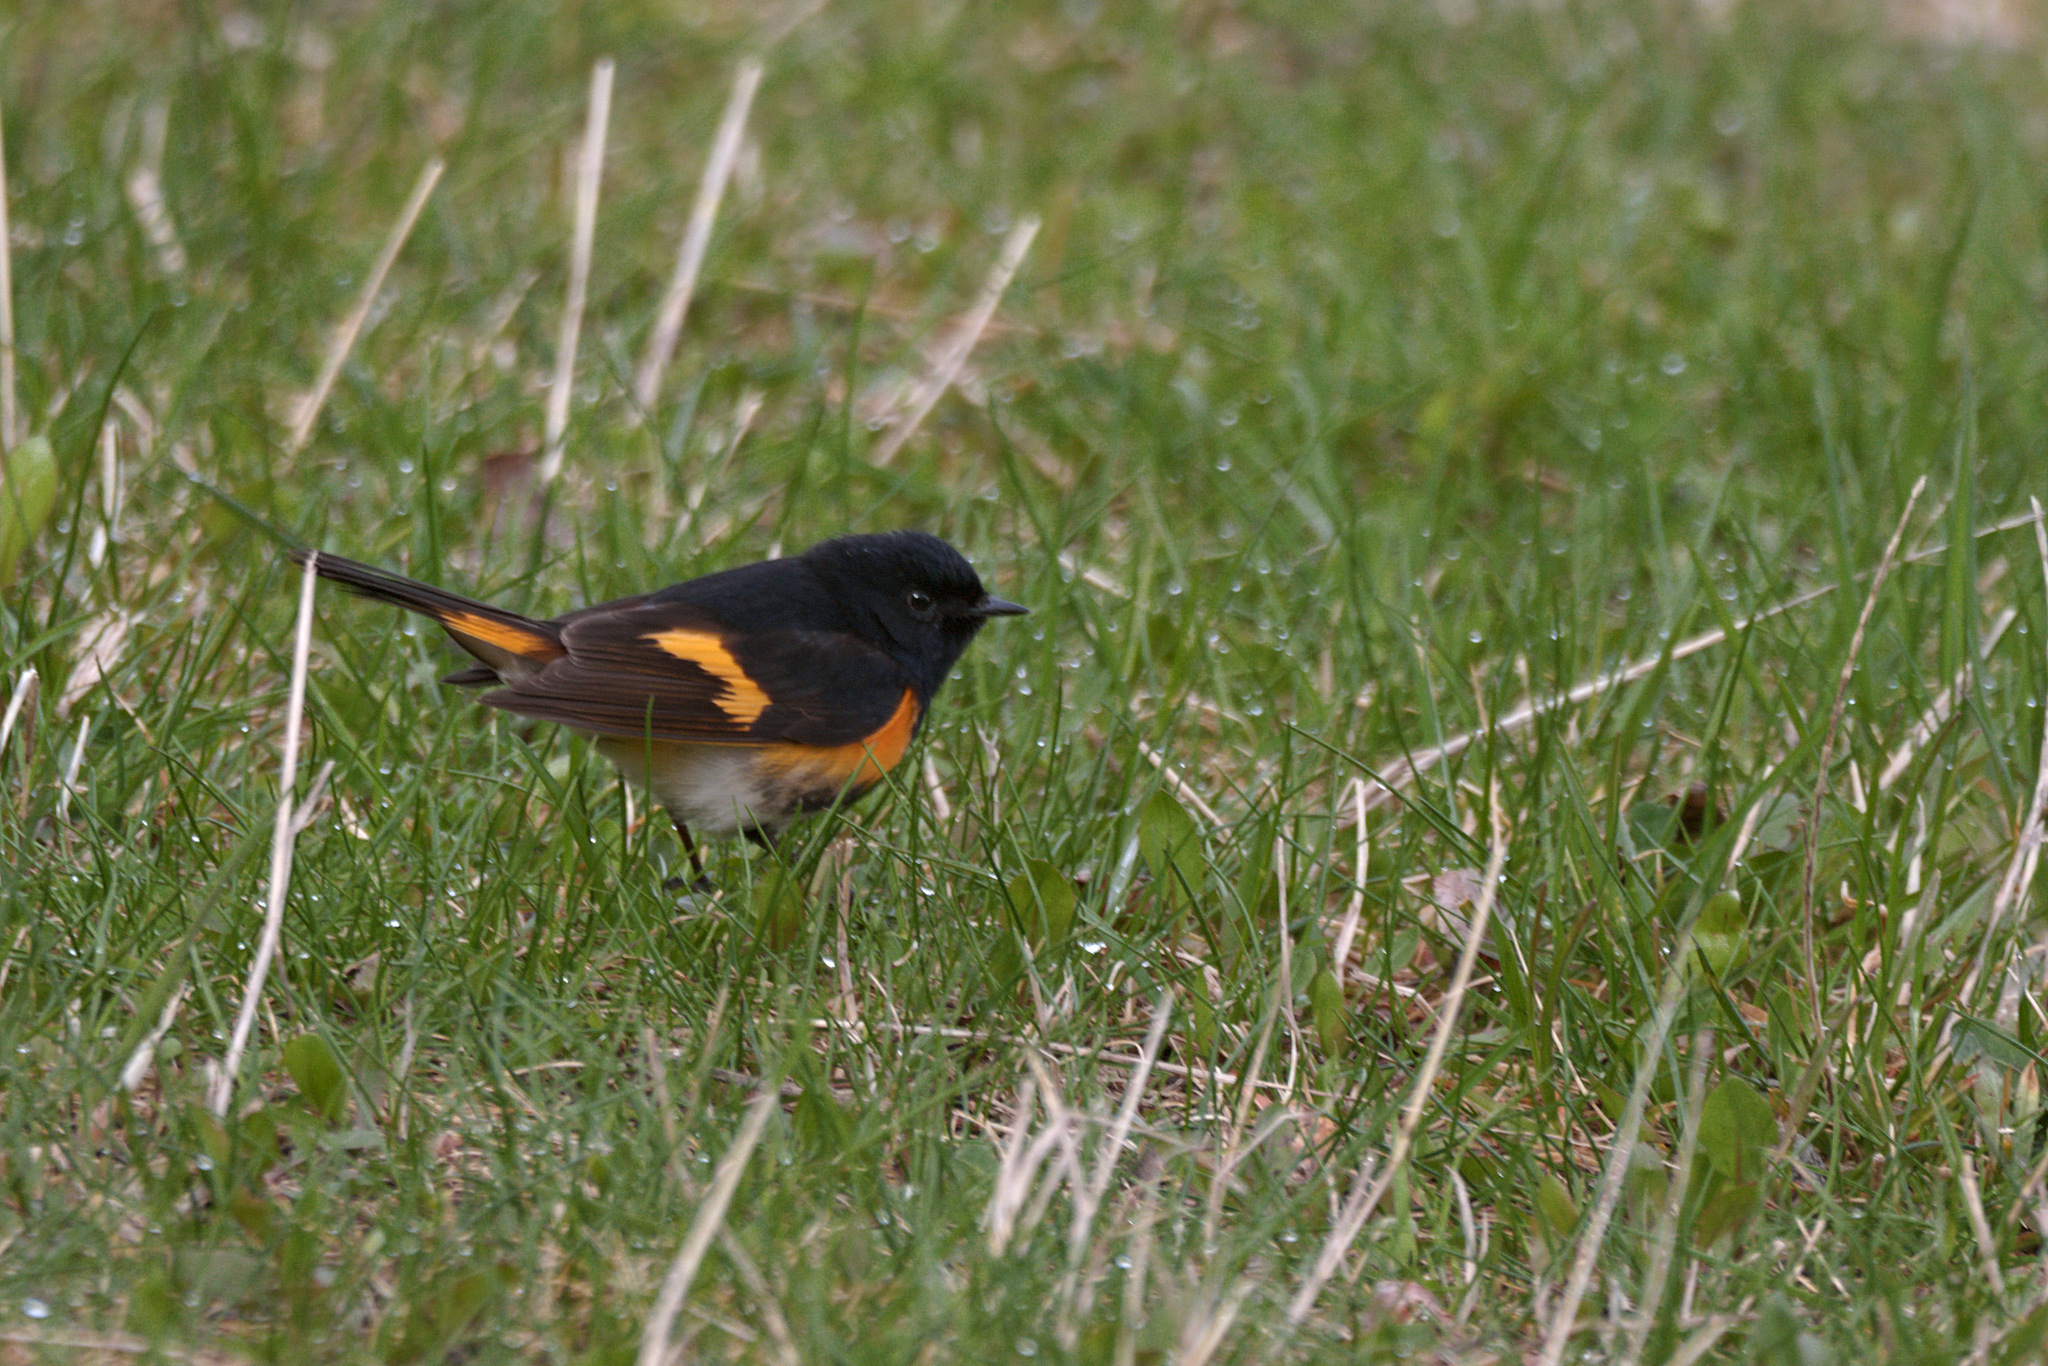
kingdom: Animalia
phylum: Chordata
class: Aves
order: Passeriformes
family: Parulidae
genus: Setophaga
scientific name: Setophaga ruticilla
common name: American redstart
